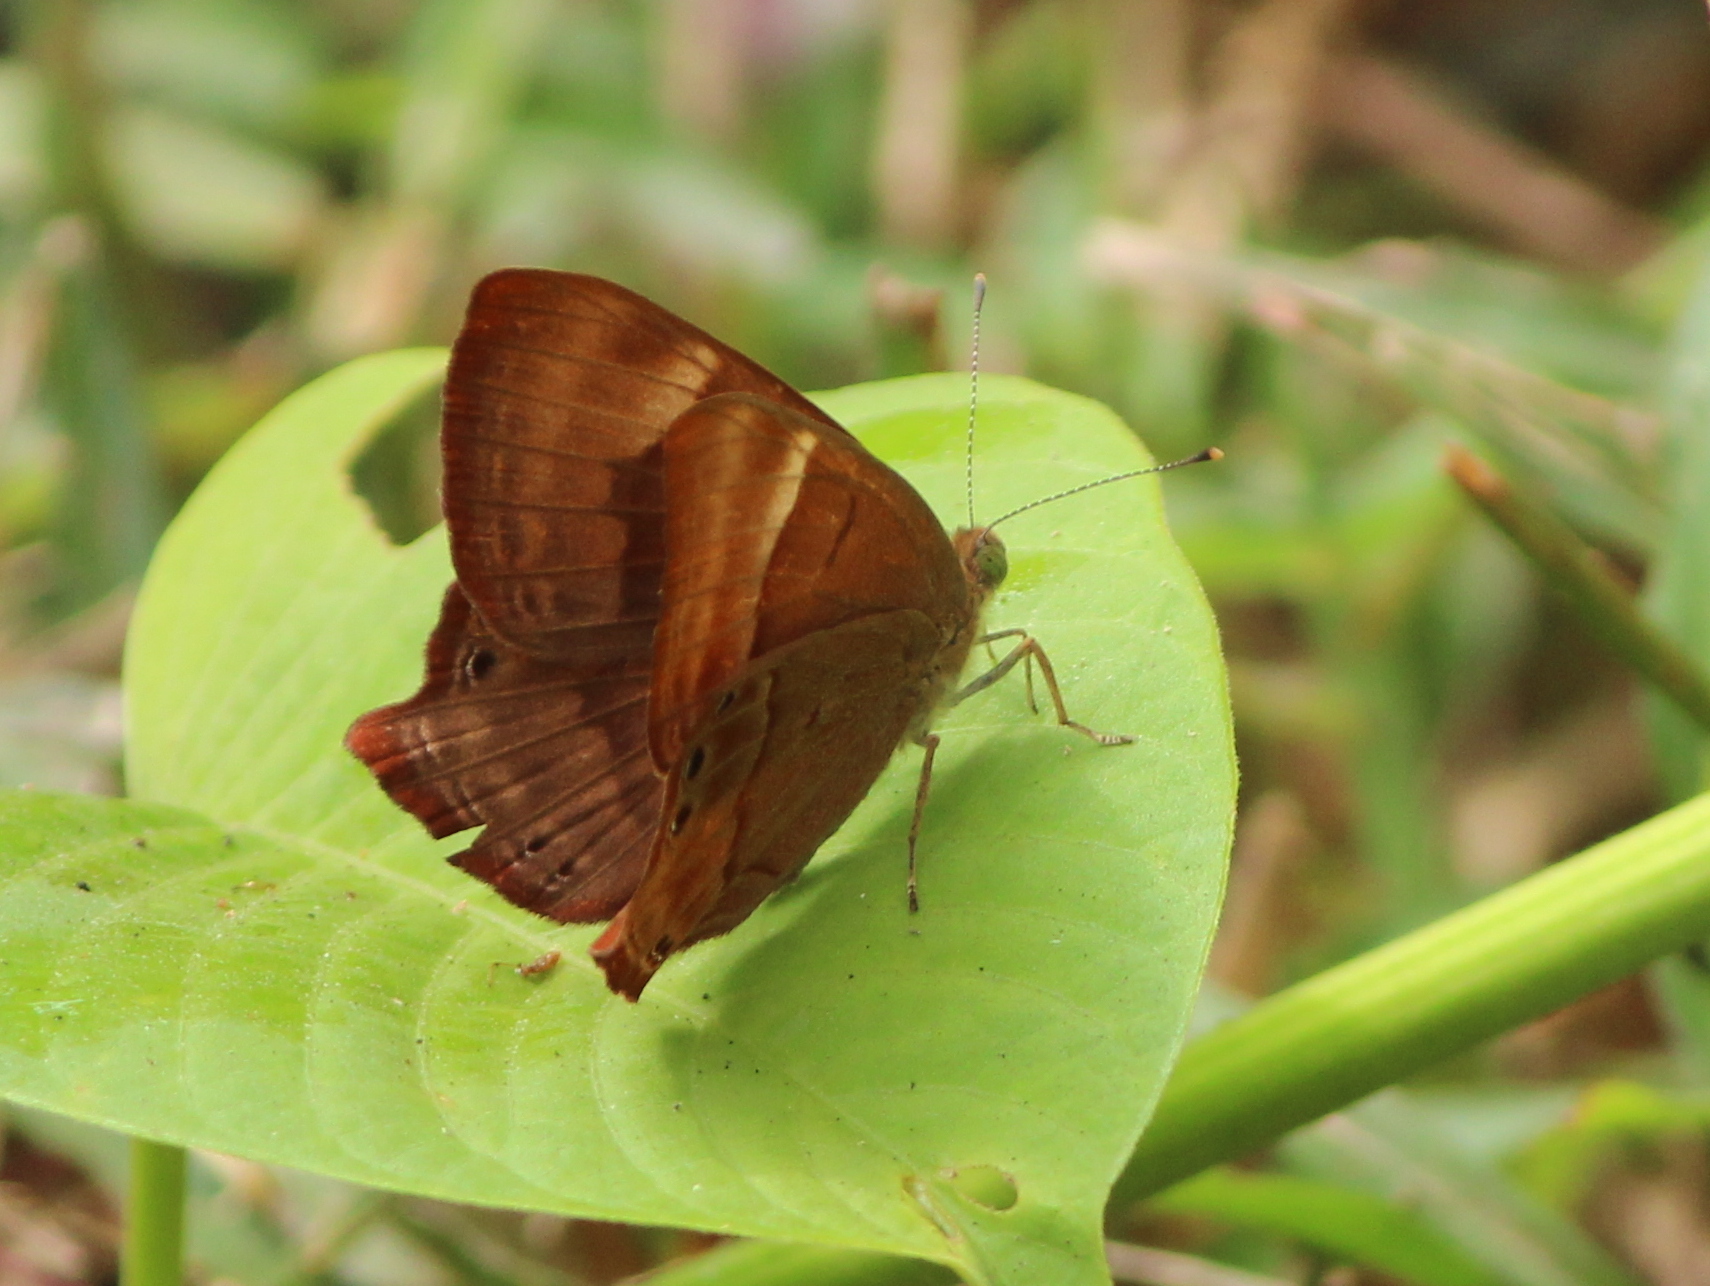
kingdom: Animalia
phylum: Arthropoda
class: Insecta
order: Lepidoptera
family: Lycaenidae
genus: Abisara
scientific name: Abisara bifasciata
